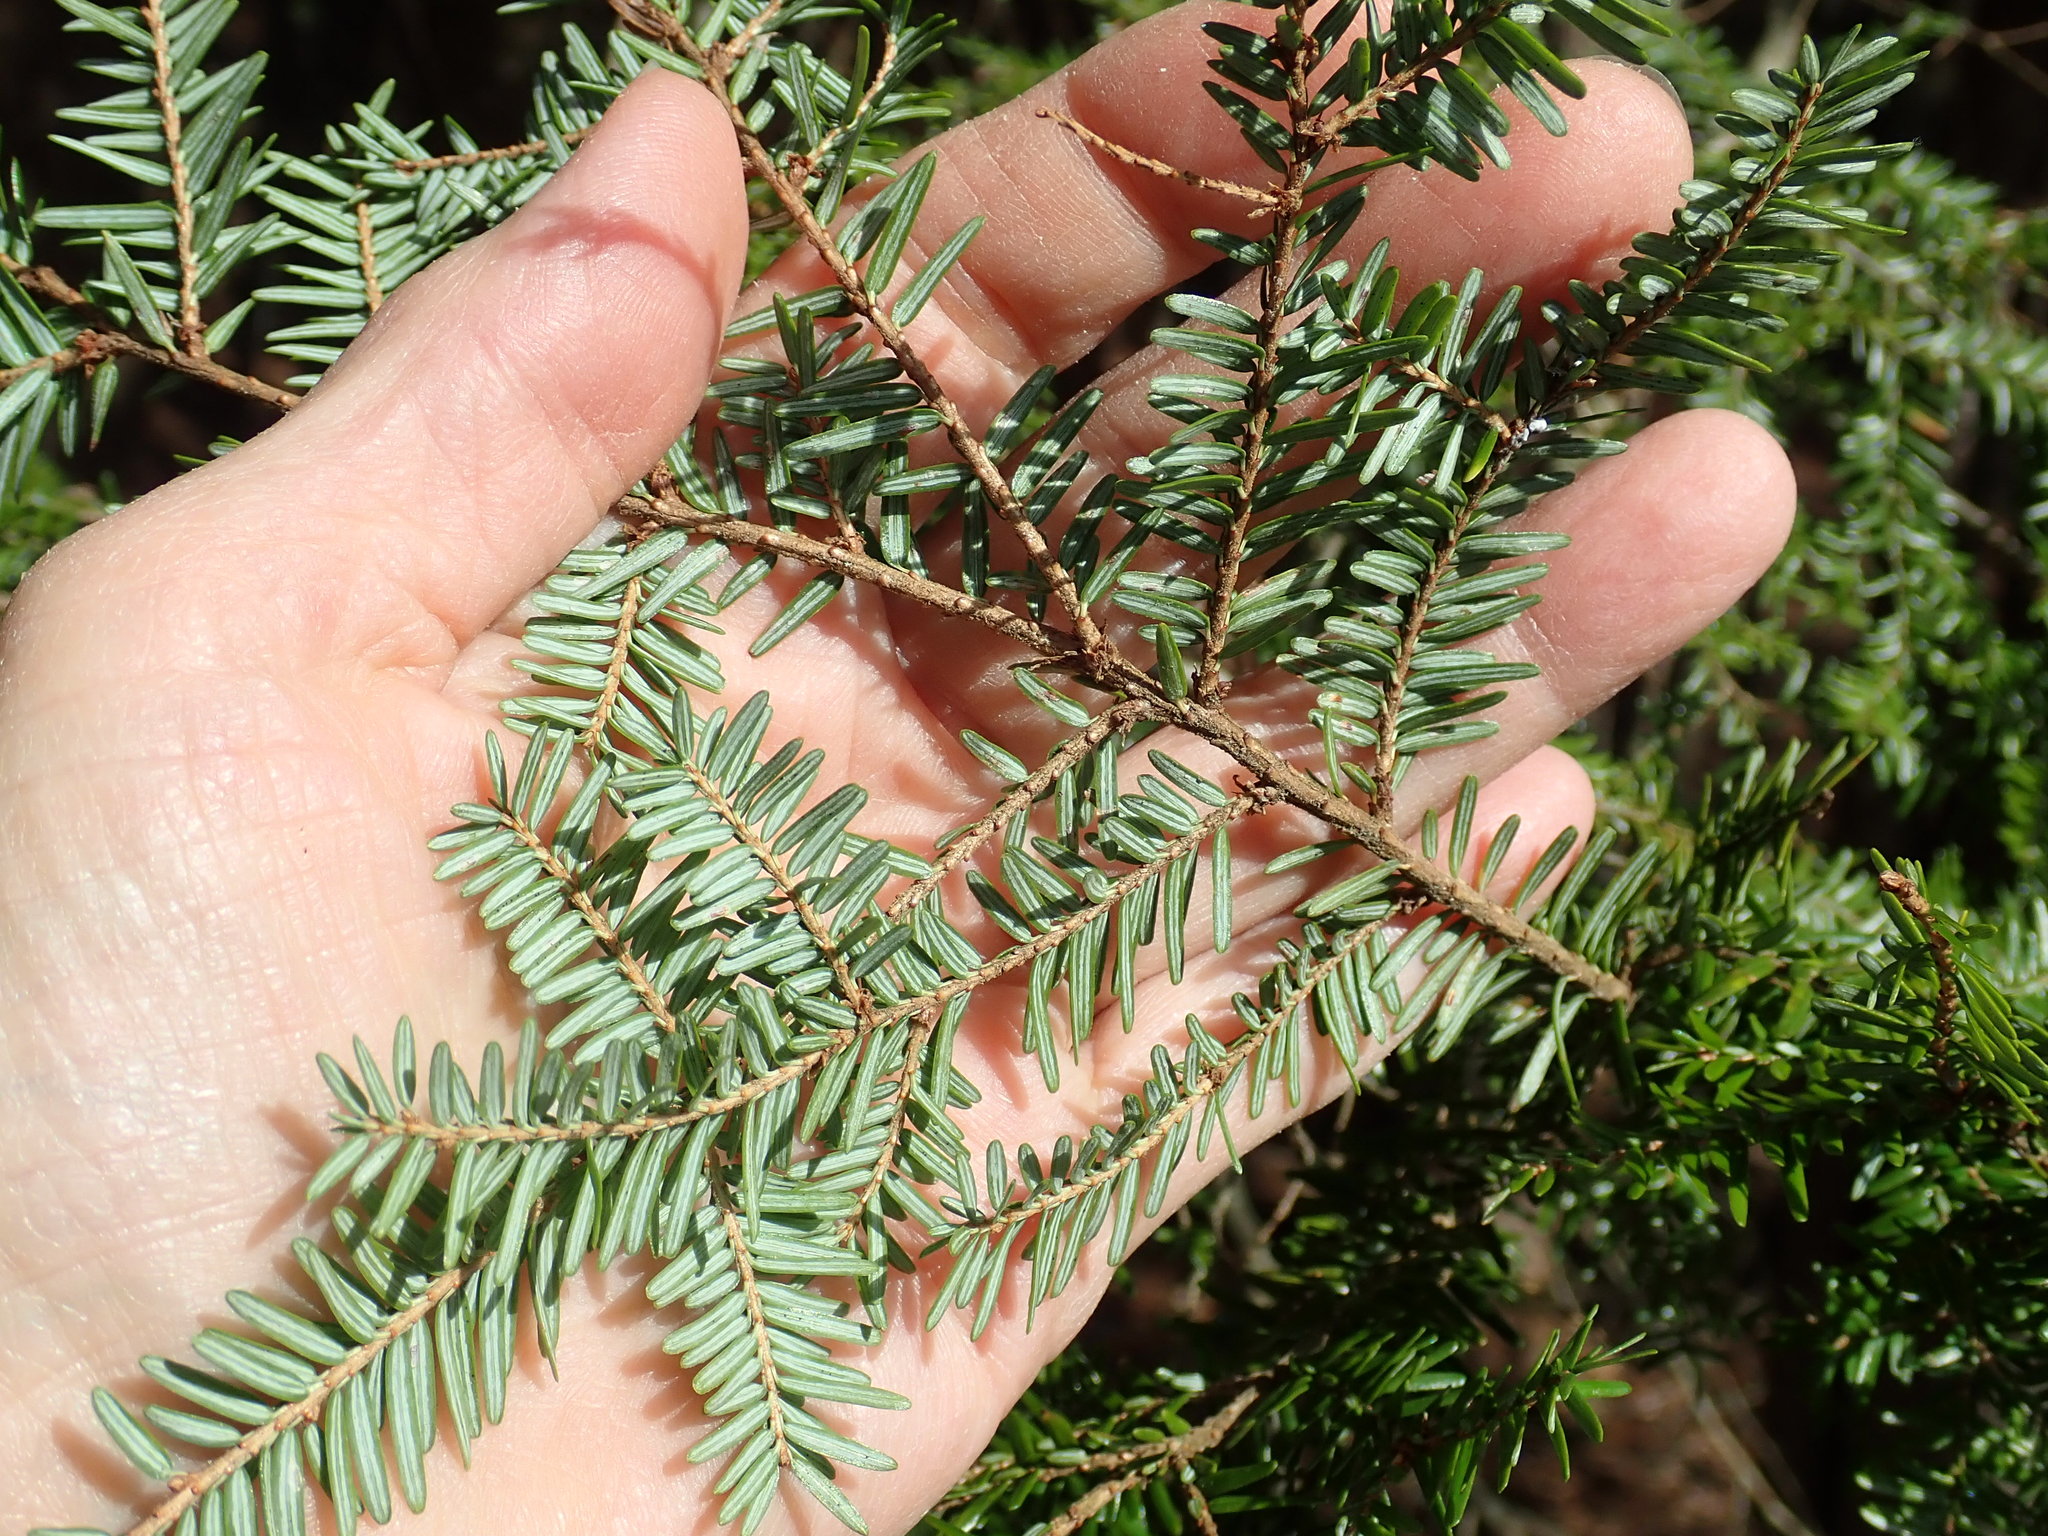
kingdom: Plantae
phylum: Tracheophyta
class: Pinopsida
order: Pinales
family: Pinaceae
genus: Tsuga
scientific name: Tsuga canadensis
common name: Eastern hemlock
